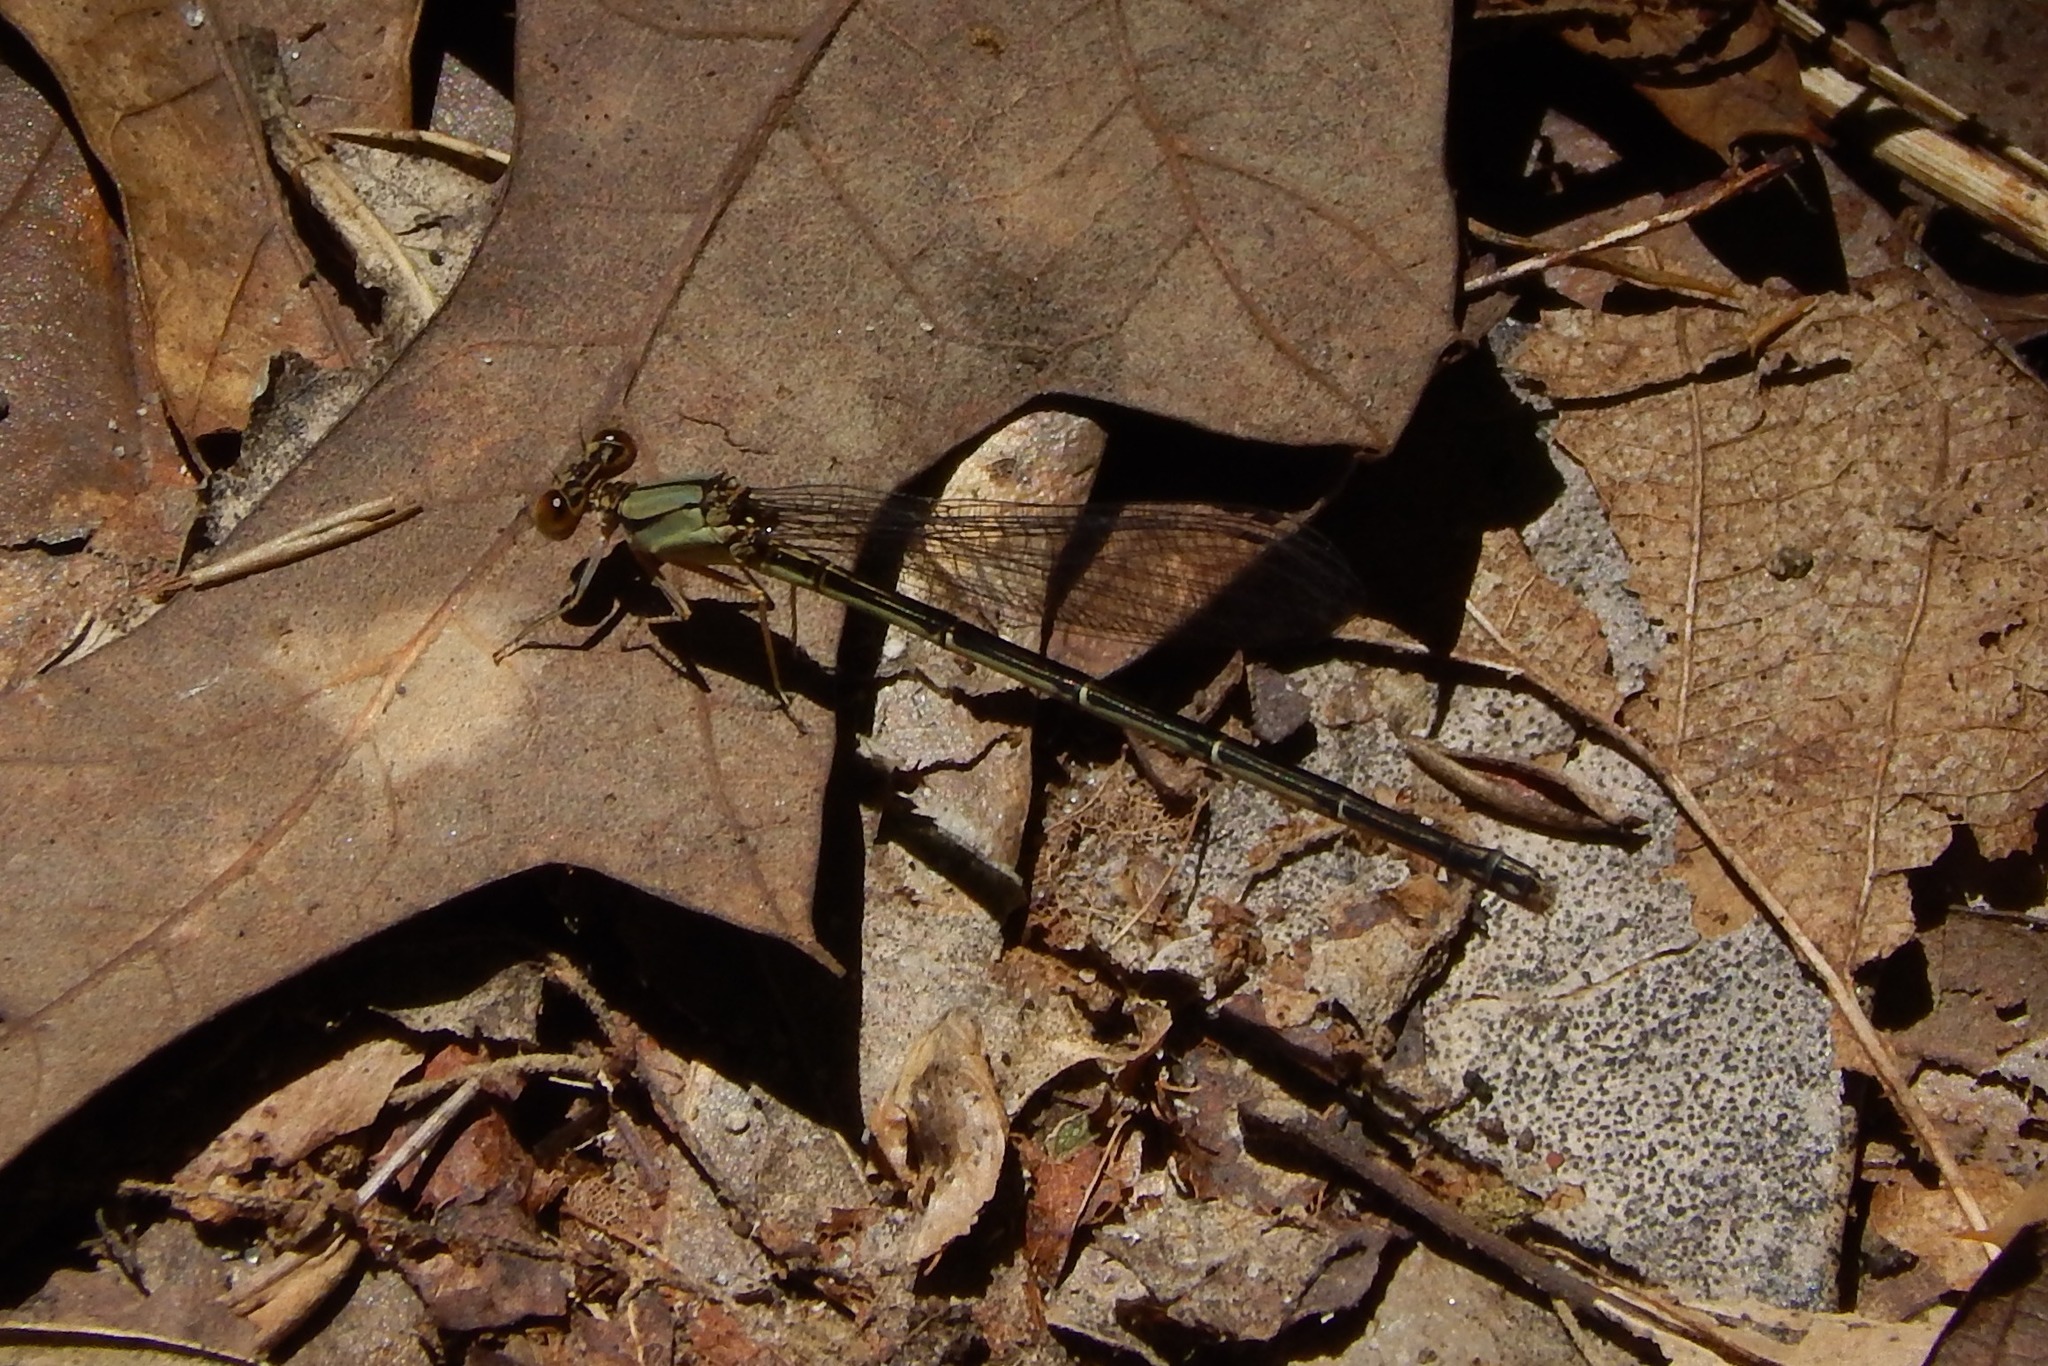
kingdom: Animalia
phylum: Arthropoda
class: Insecta
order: Odonata
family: Coenagrionidae
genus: Argia
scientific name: Argia apicalis
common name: Blue-fronted dancer
